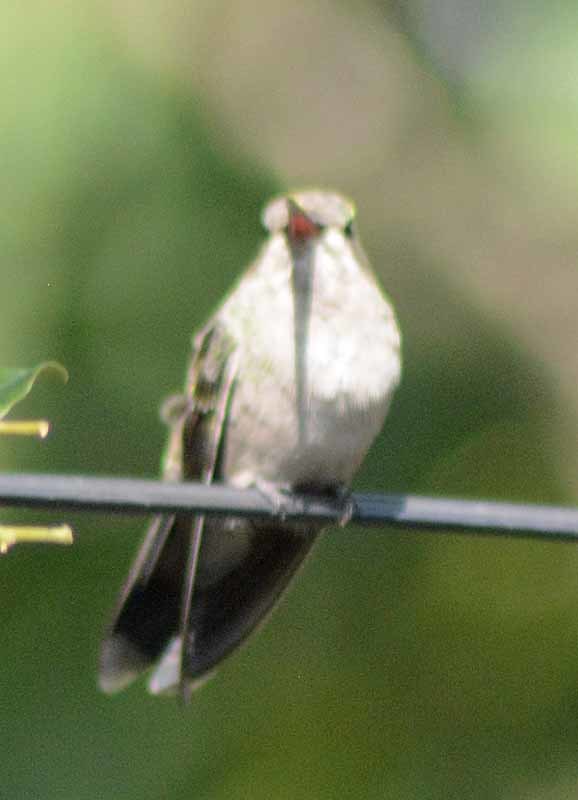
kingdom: Animalia
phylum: Chordata
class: Aves
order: Apodiformes
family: Trochilidae
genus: Cynanthus
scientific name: Cynanthus latirostris
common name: Broad-billed hummingbird
